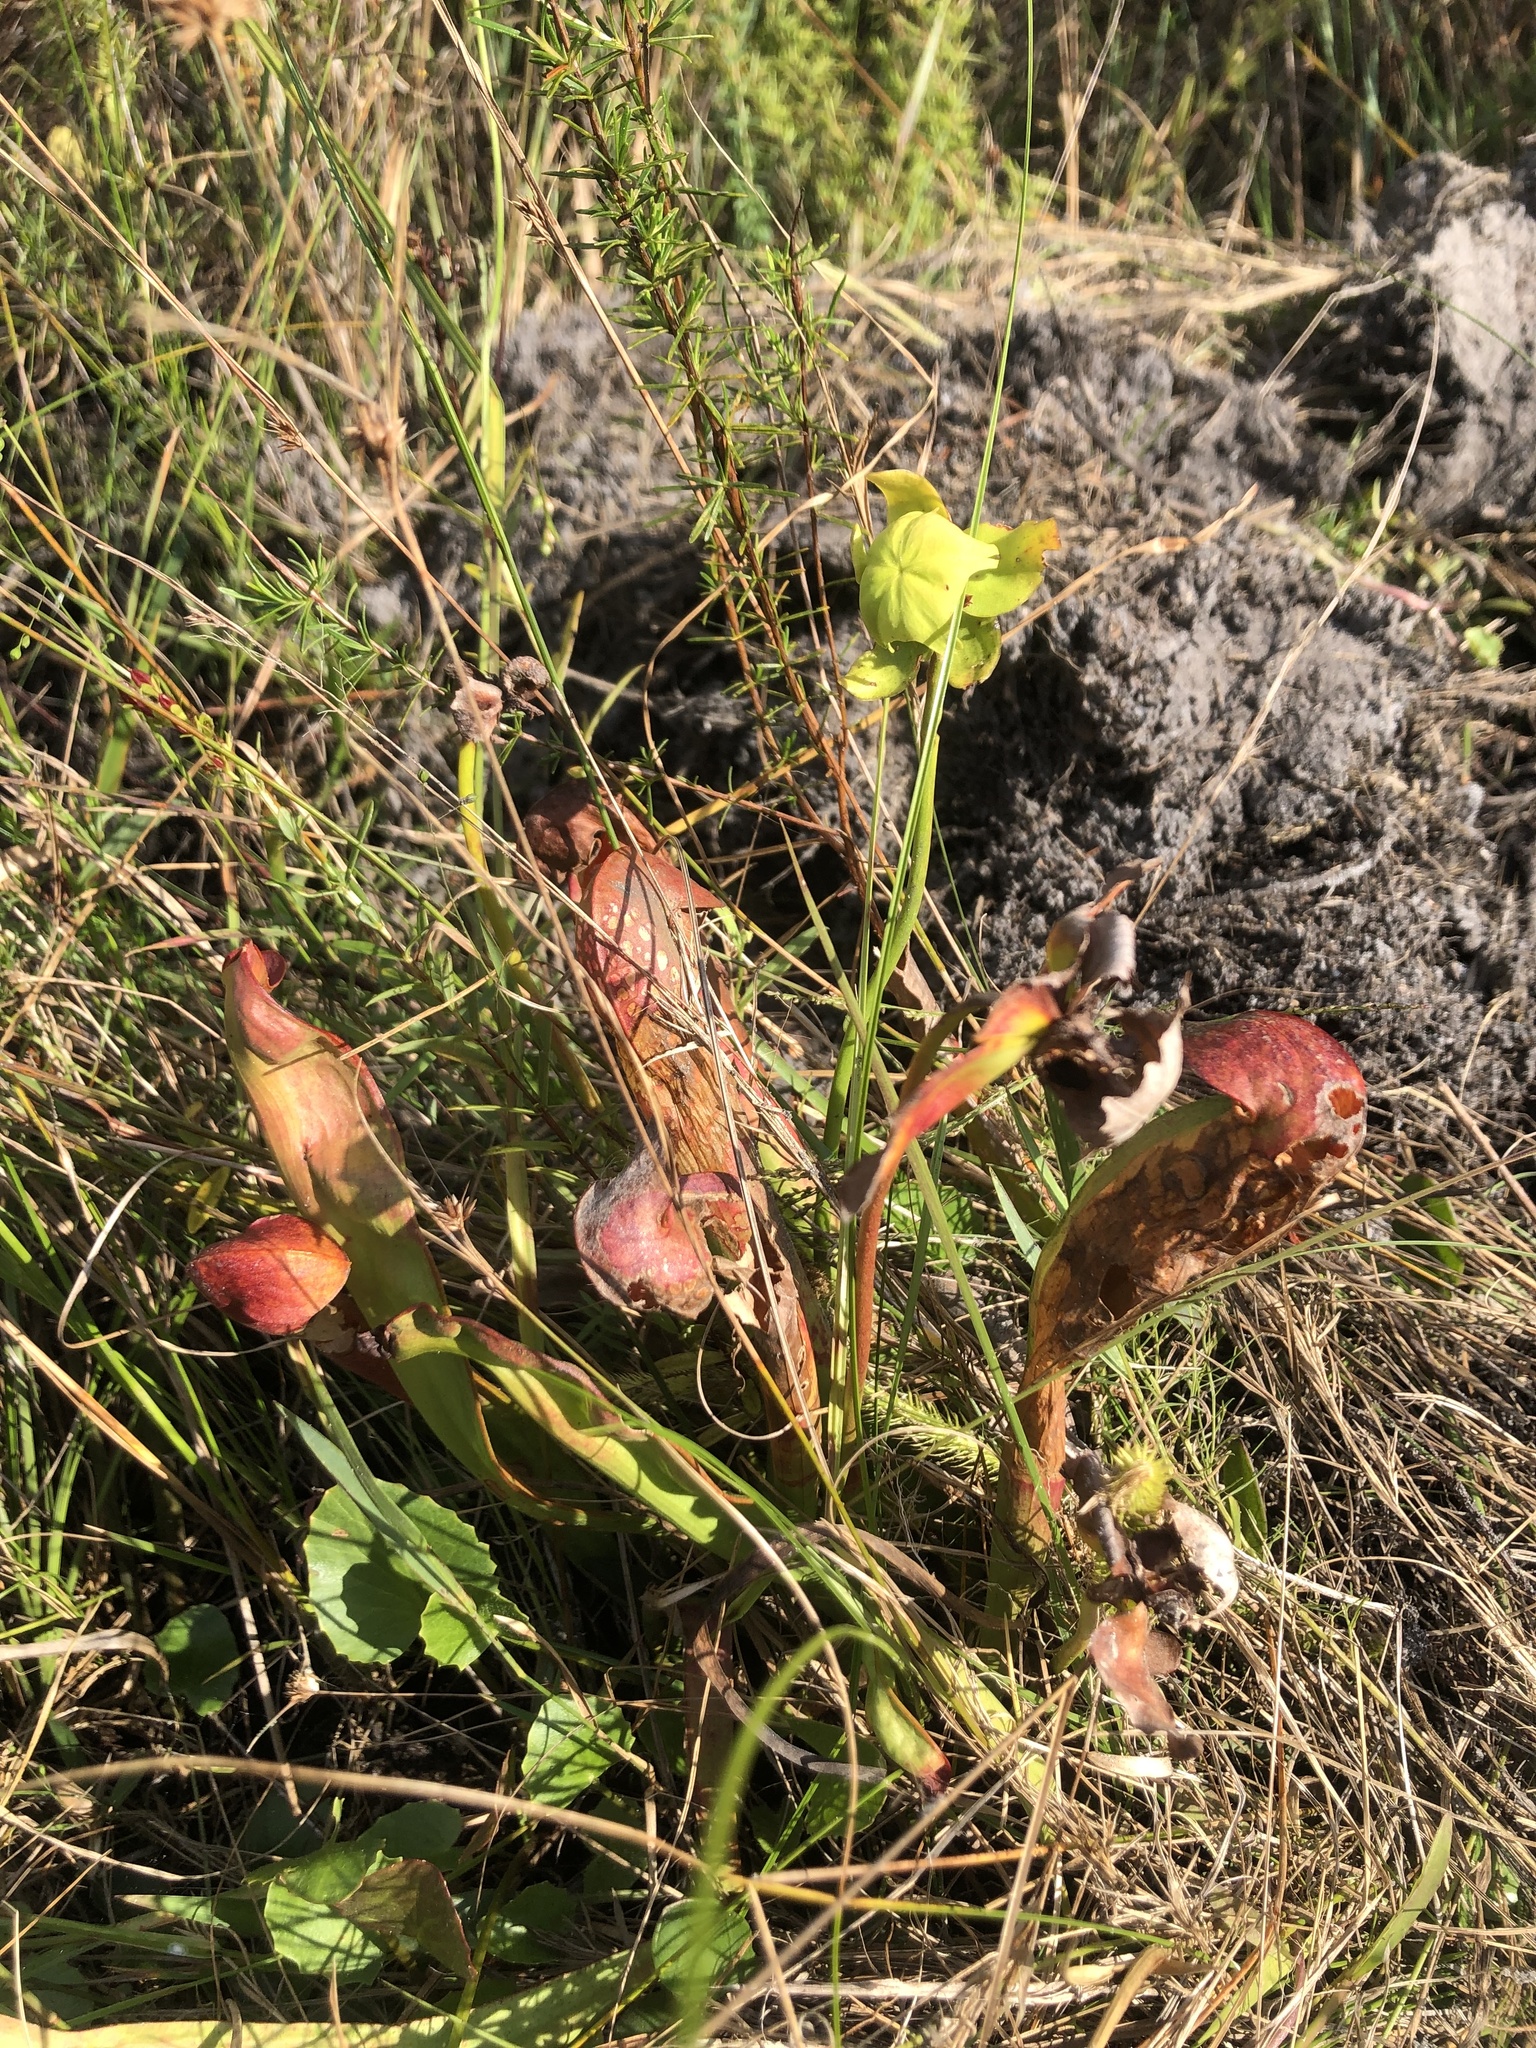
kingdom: Plantae
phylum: Tracheophyta
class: Magnoliopsida
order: Ericales
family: Sarraceniaceae
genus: Sarracenia
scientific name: Sarracenia minor
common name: Rainhat-trumpet
